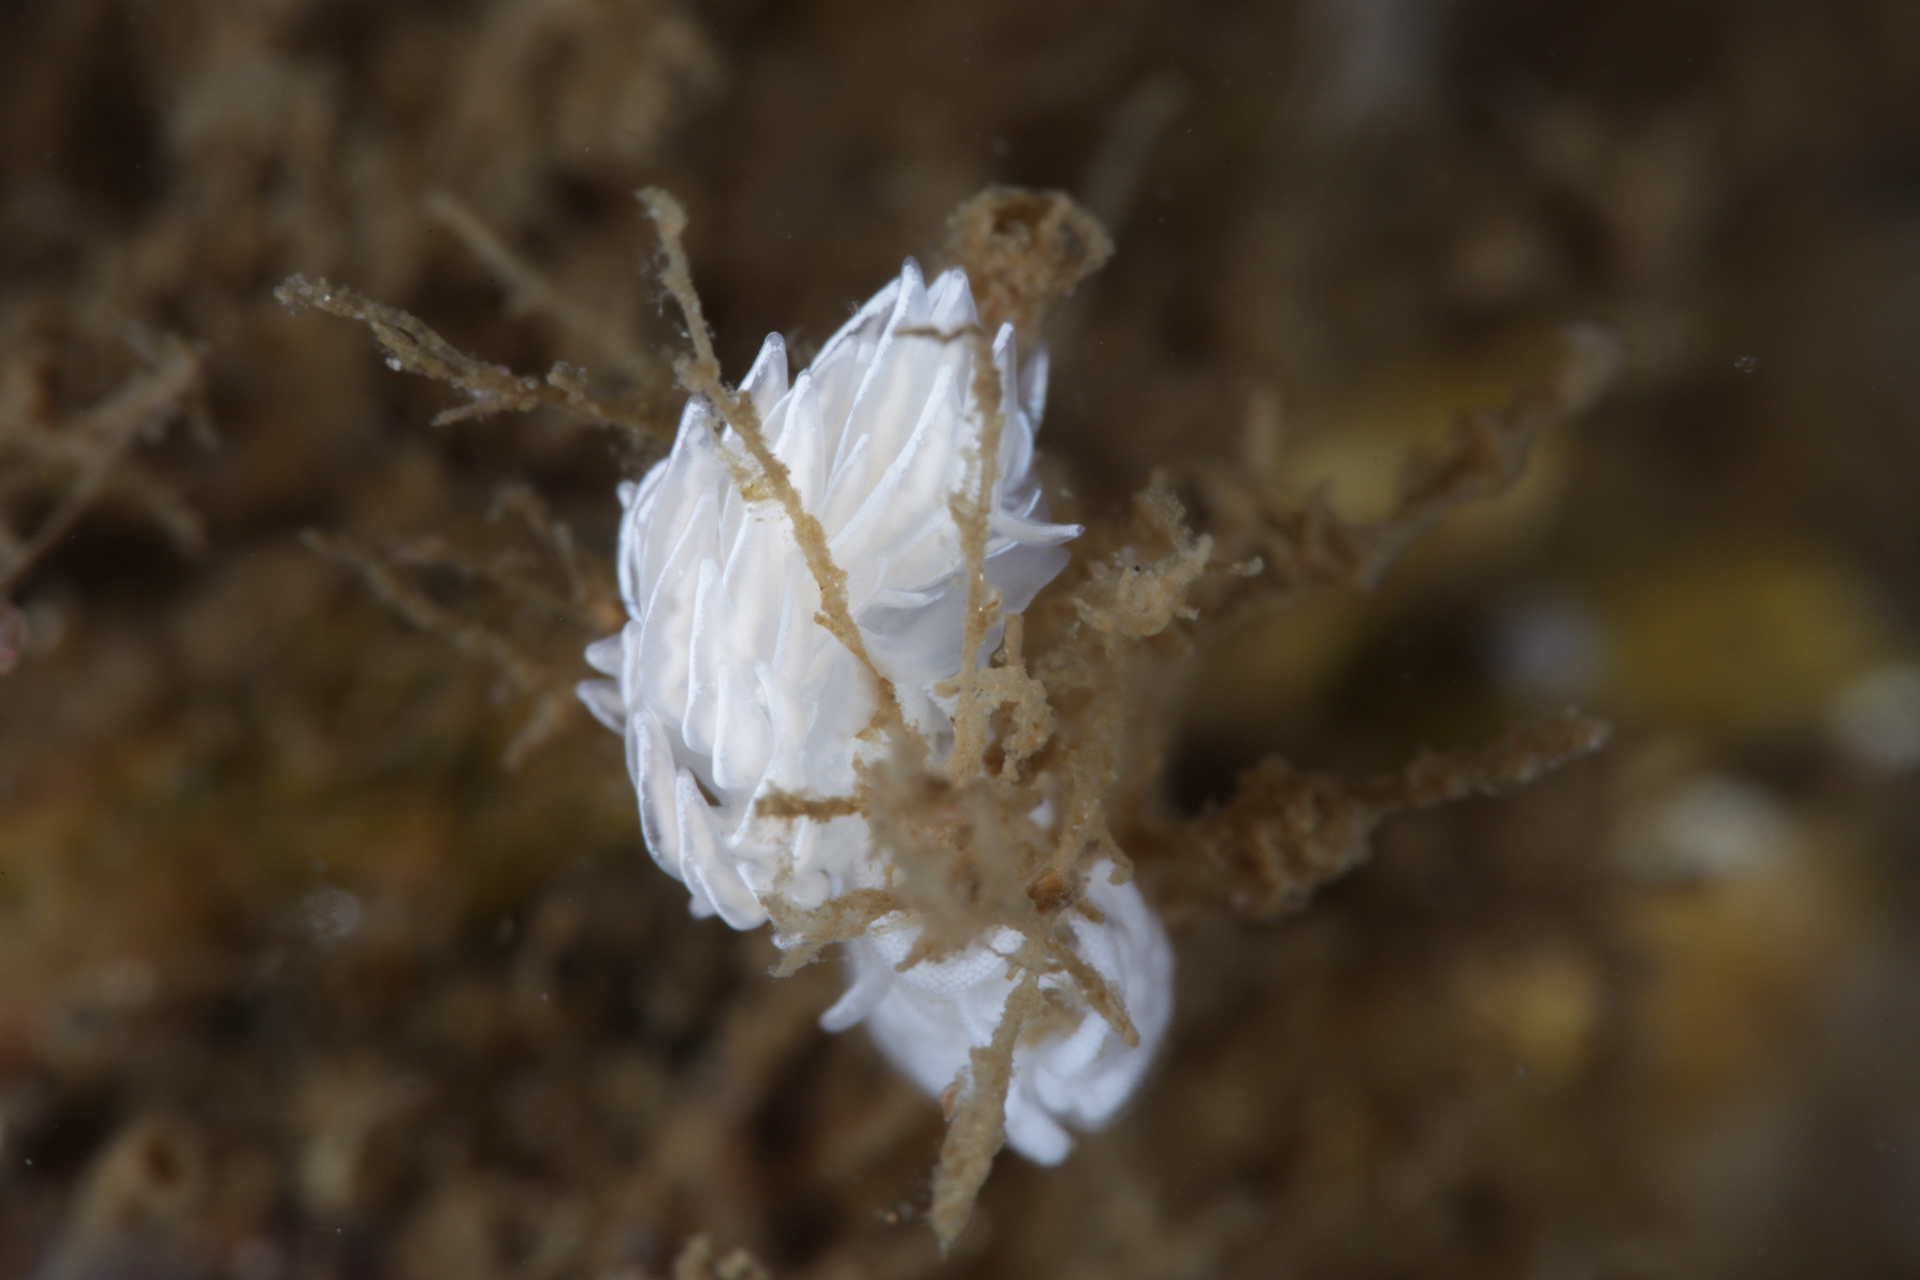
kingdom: Animalia
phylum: Mollusca
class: Gastropoda
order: Nudibranchia
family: Facelinidae
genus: Favorinus
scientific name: Favorinus blianus
